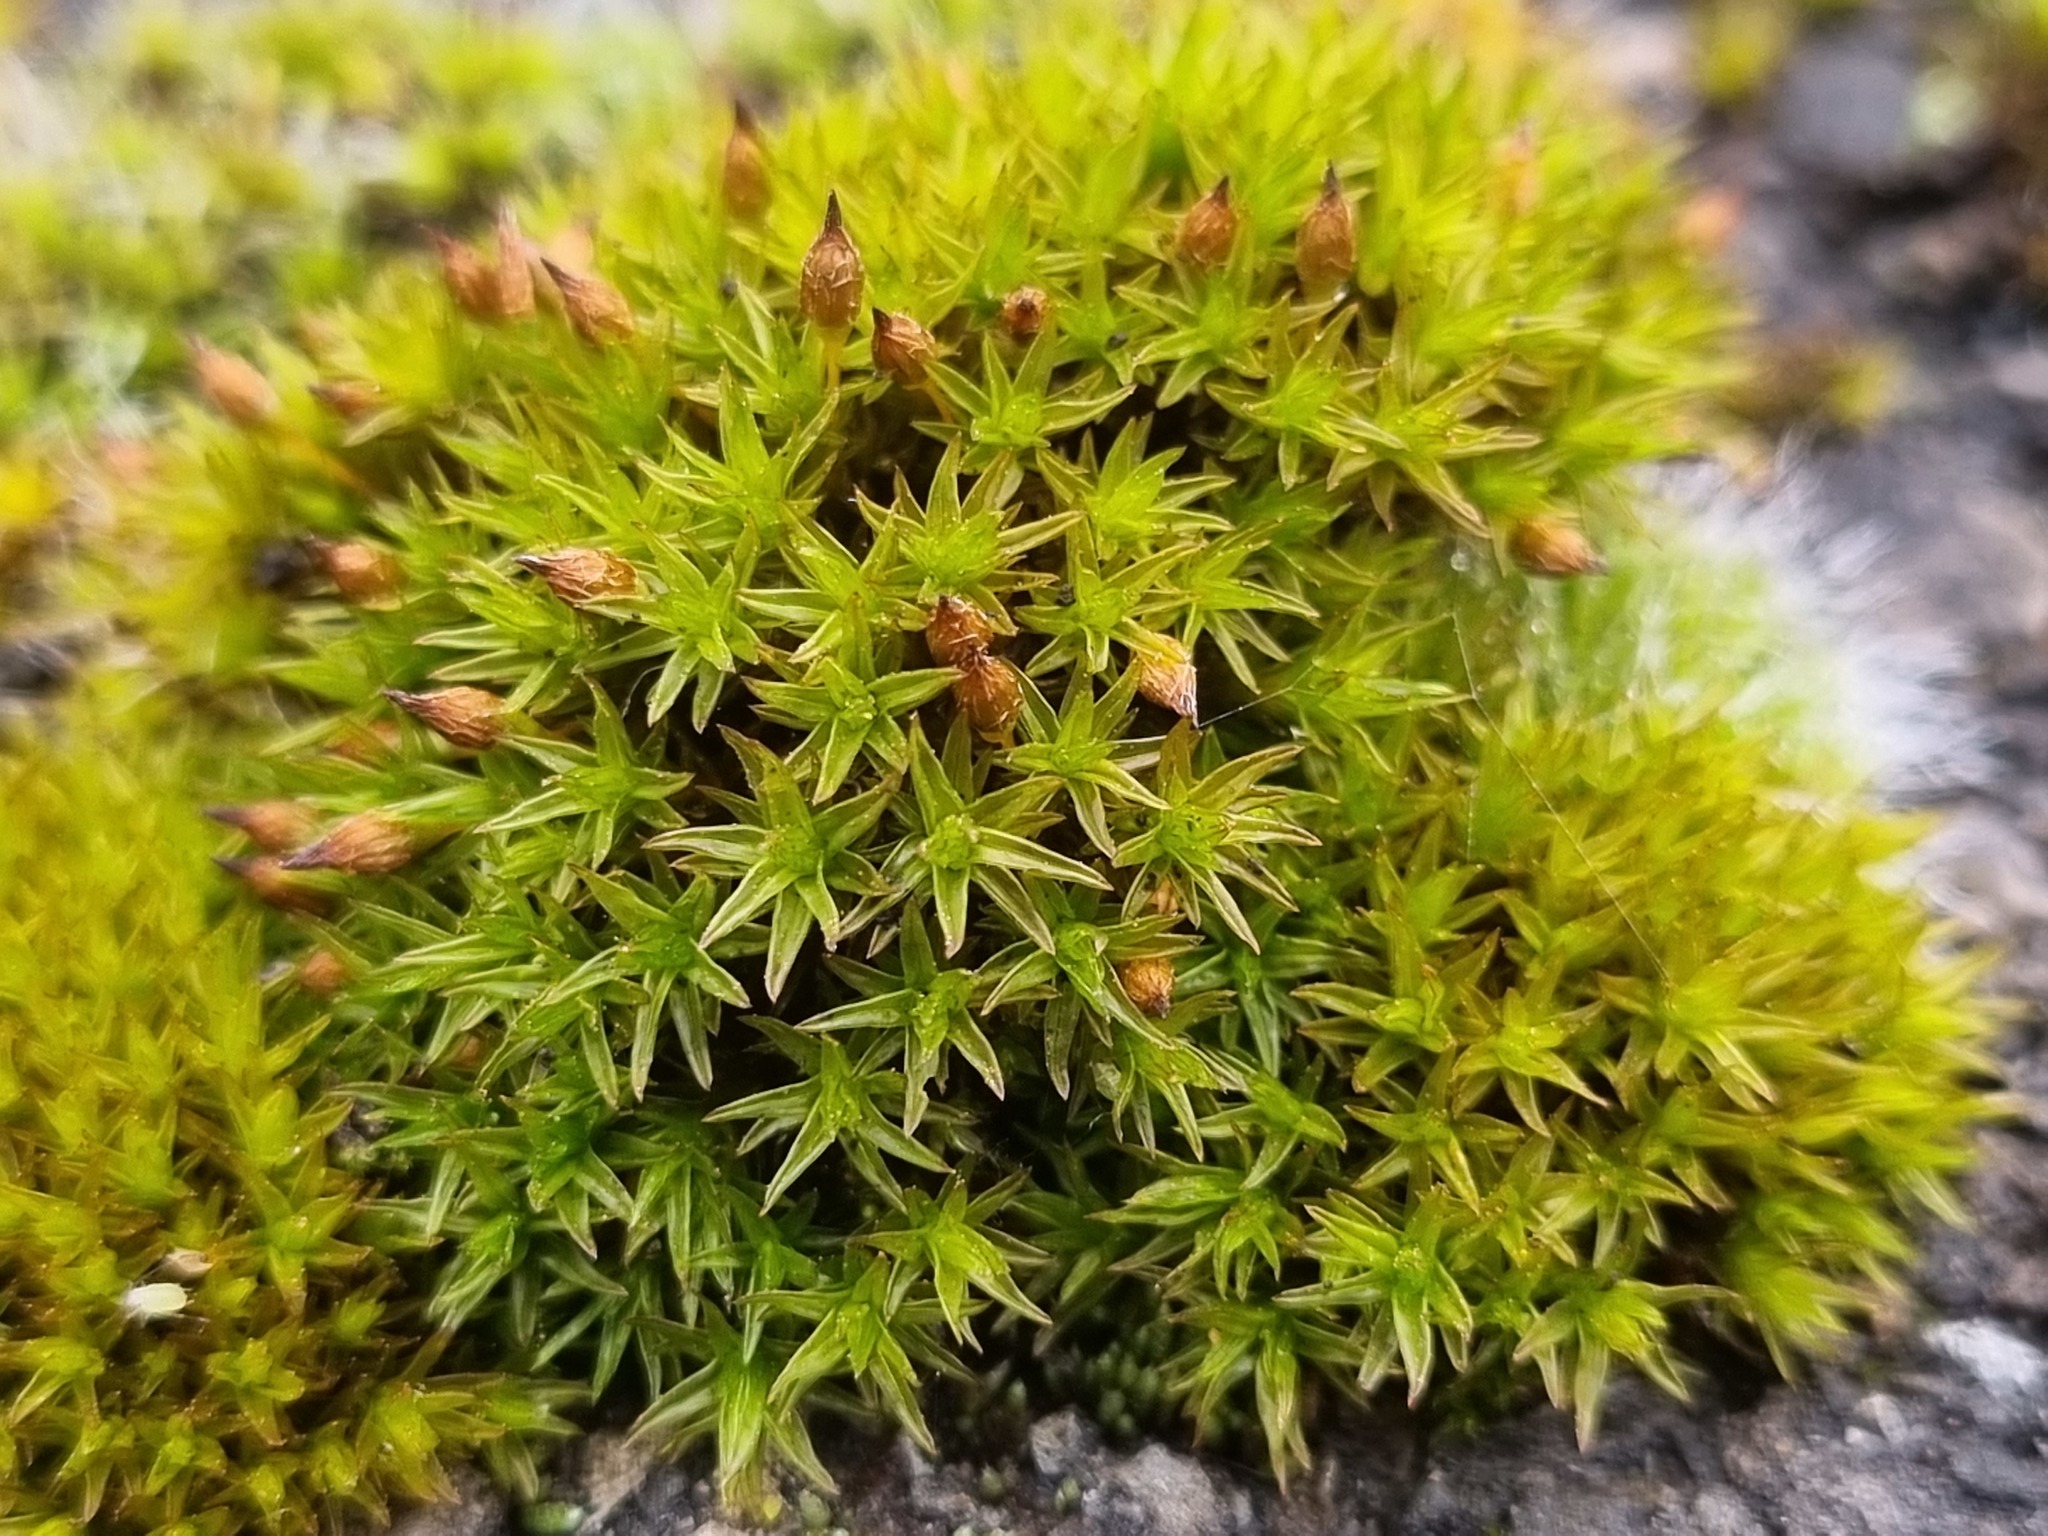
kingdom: Plantae
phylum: Bryophyta
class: Bryopsida
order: Orthotrichales
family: Orthotrichaceae
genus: Orthotrichum
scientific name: Orthotrichum anomalum
